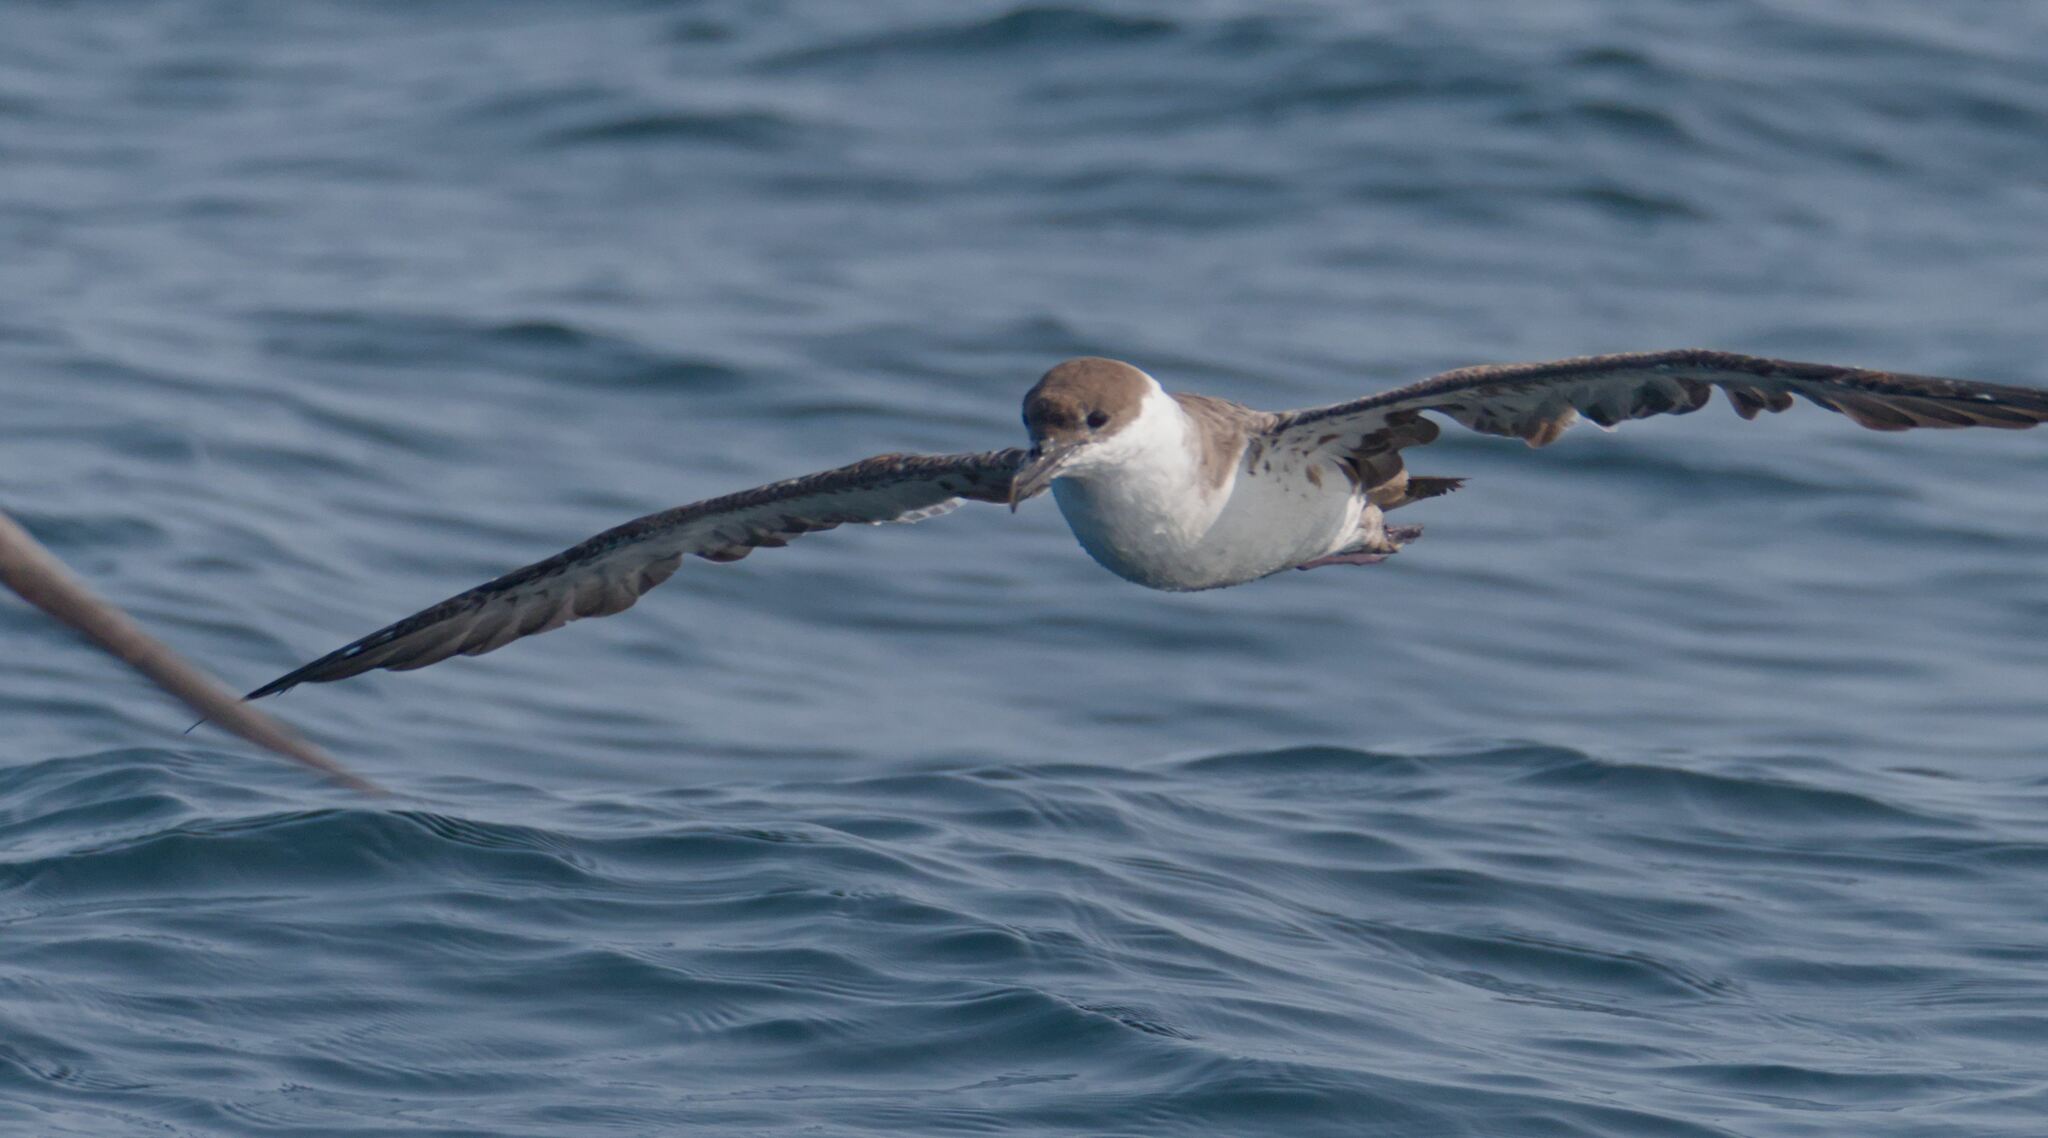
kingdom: Animalia
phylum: Chordata
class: Aves
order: Procellariiformes
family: Procellariidae
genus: Puffinus
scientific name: Puffinus gravis
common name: Great shearwater
